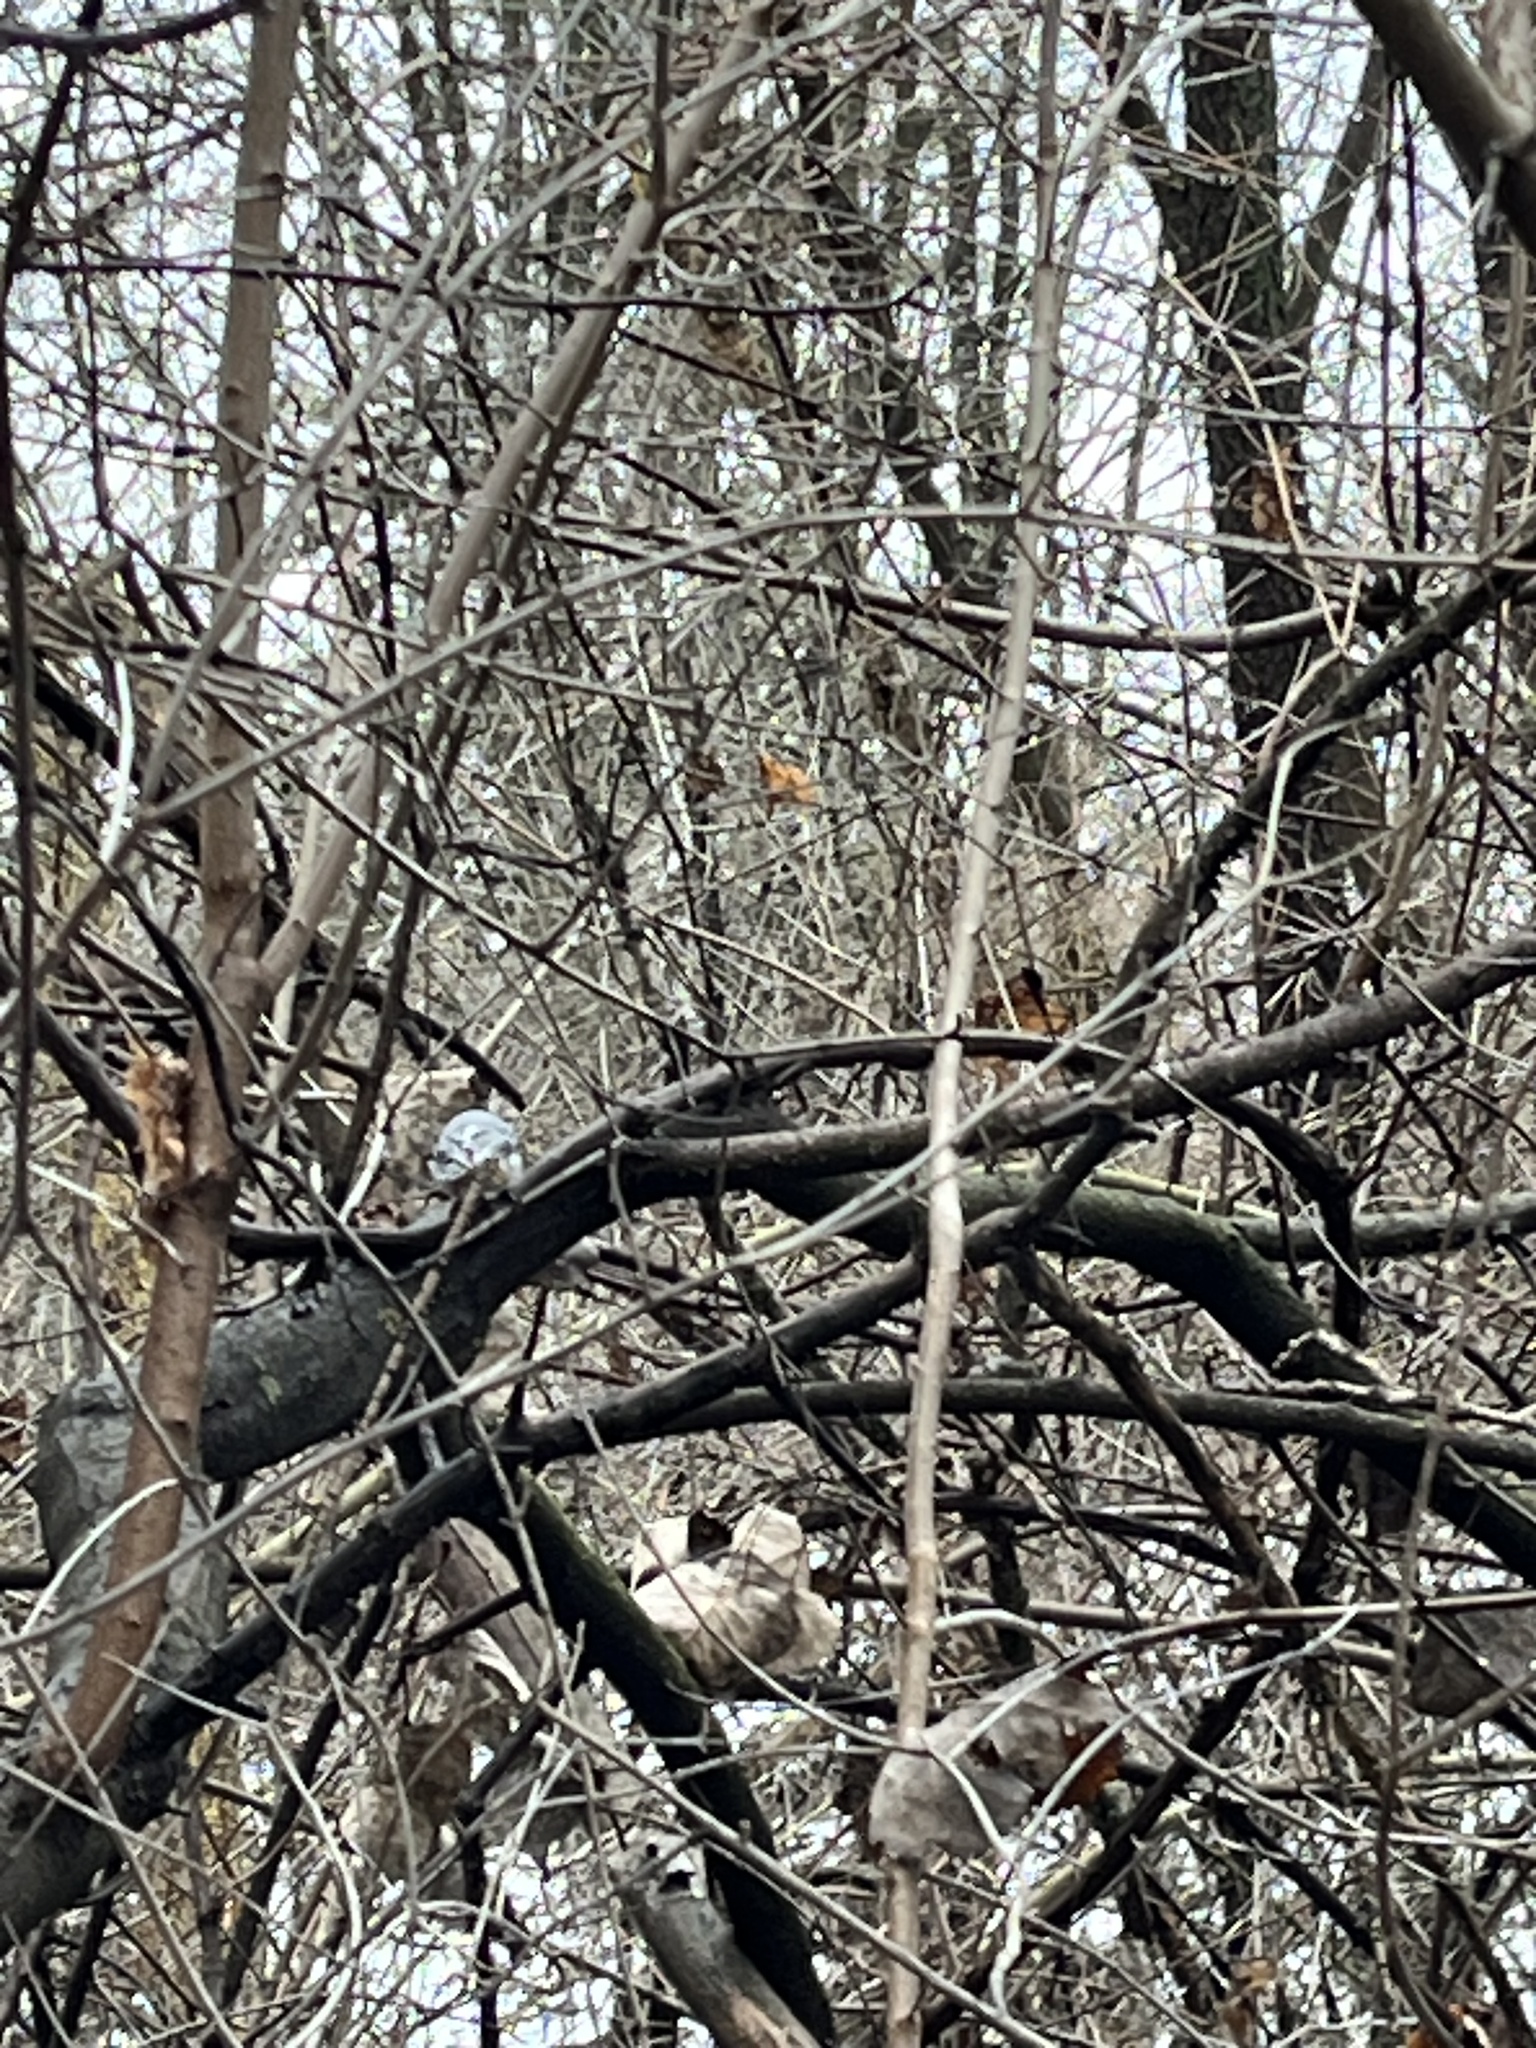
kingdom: Animalia
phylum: Chordata
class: Aves
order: Passeriformes
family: Sittidae
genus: Sitta
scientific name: Sitta carolinensis
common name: White-breasted nuthatch
